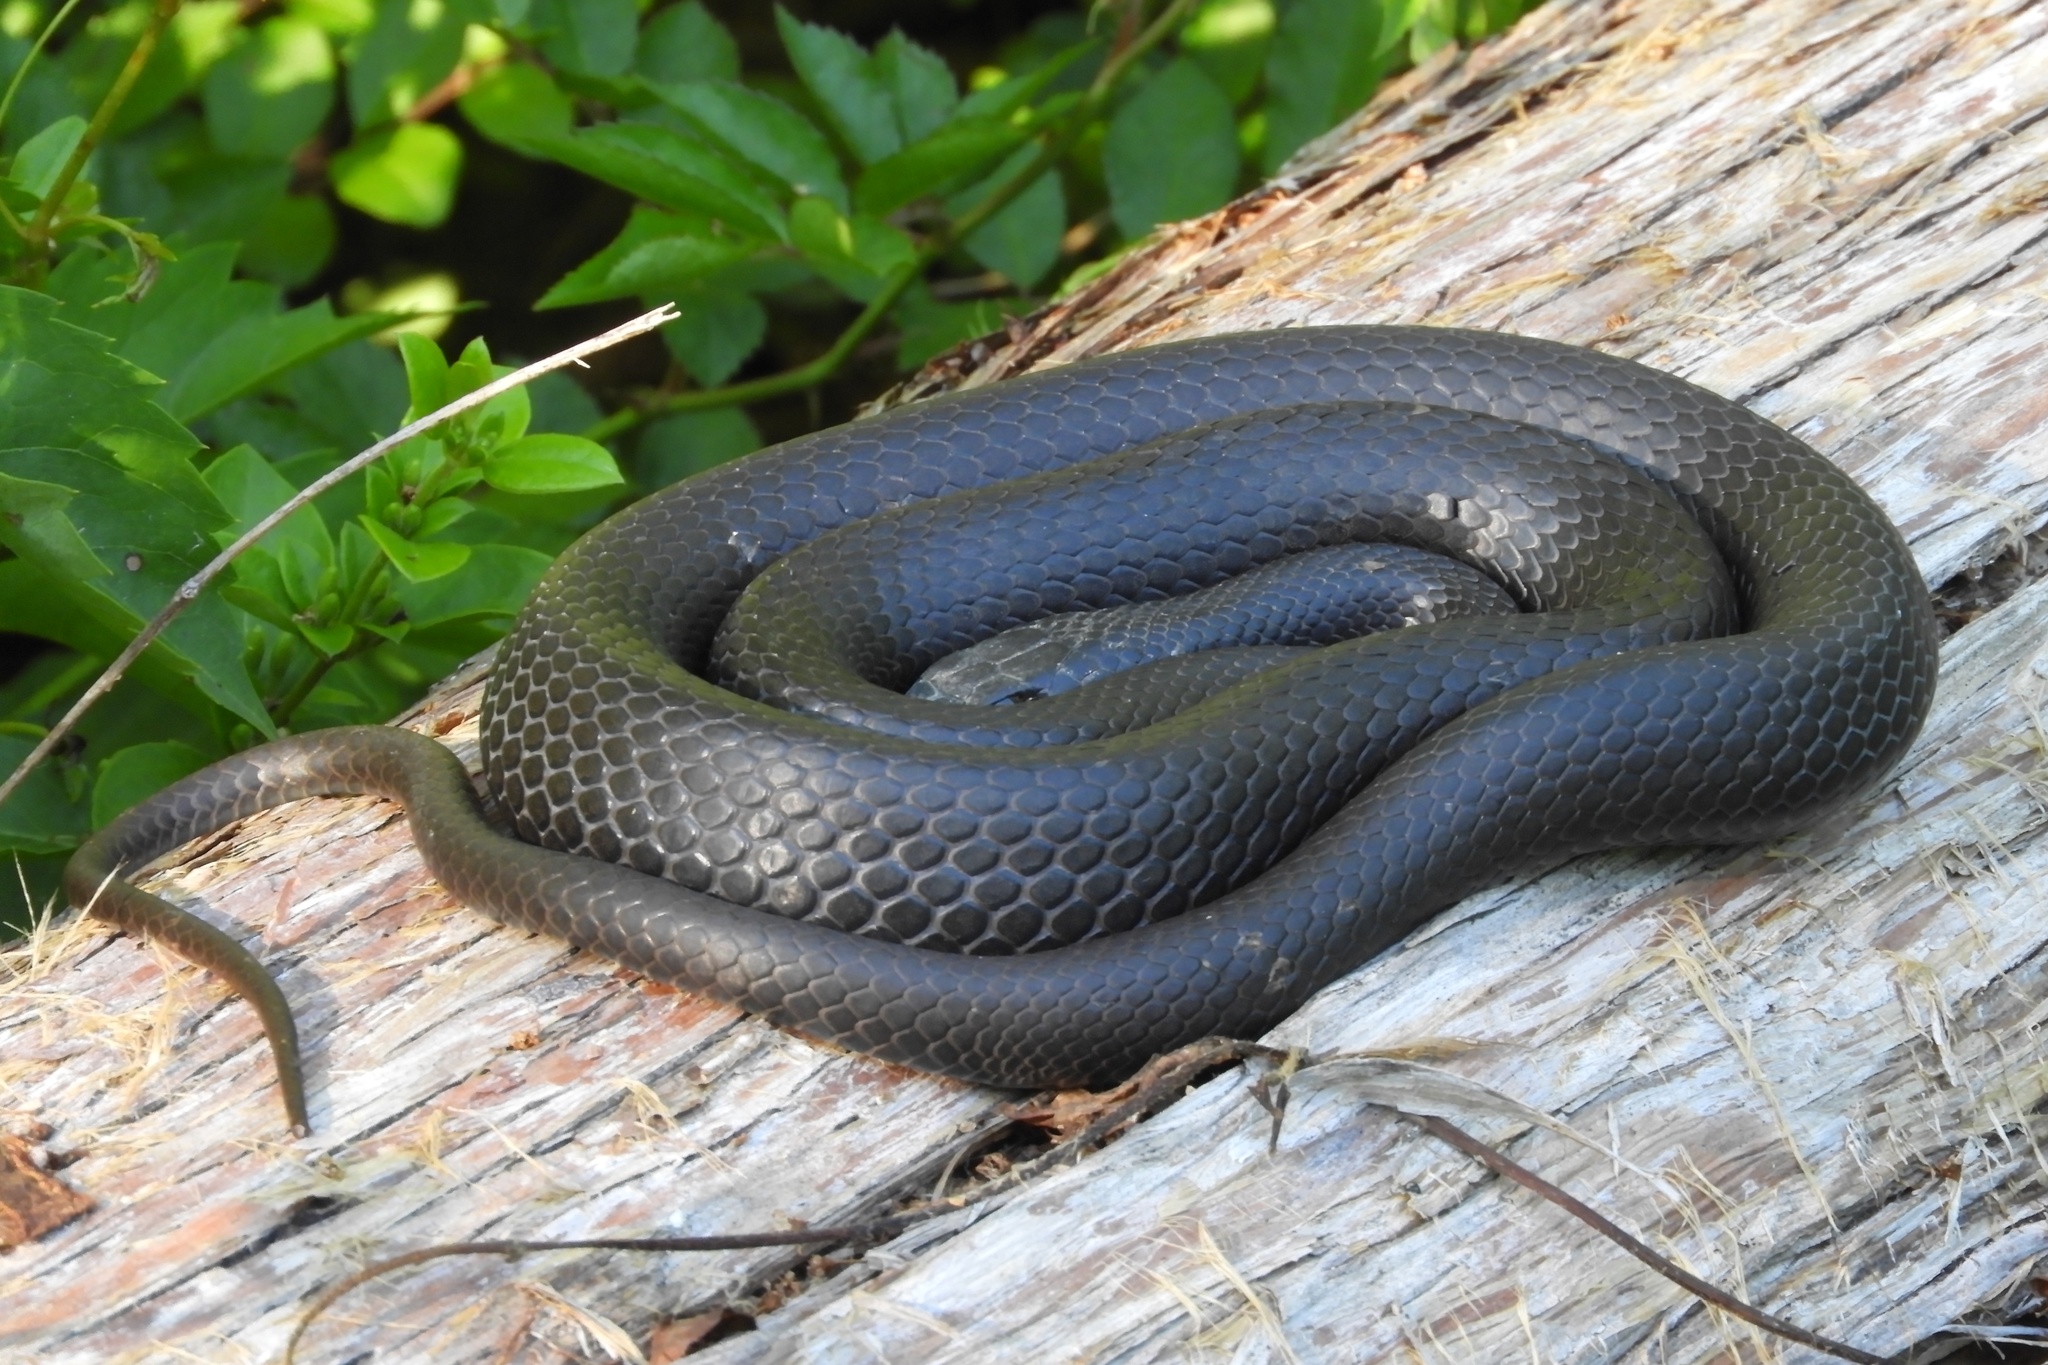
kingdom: Animalia
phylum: Chordata
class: Squamata
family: Colubridae
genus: Coluber
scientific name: Coluber constrictor
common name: Eastern racer
